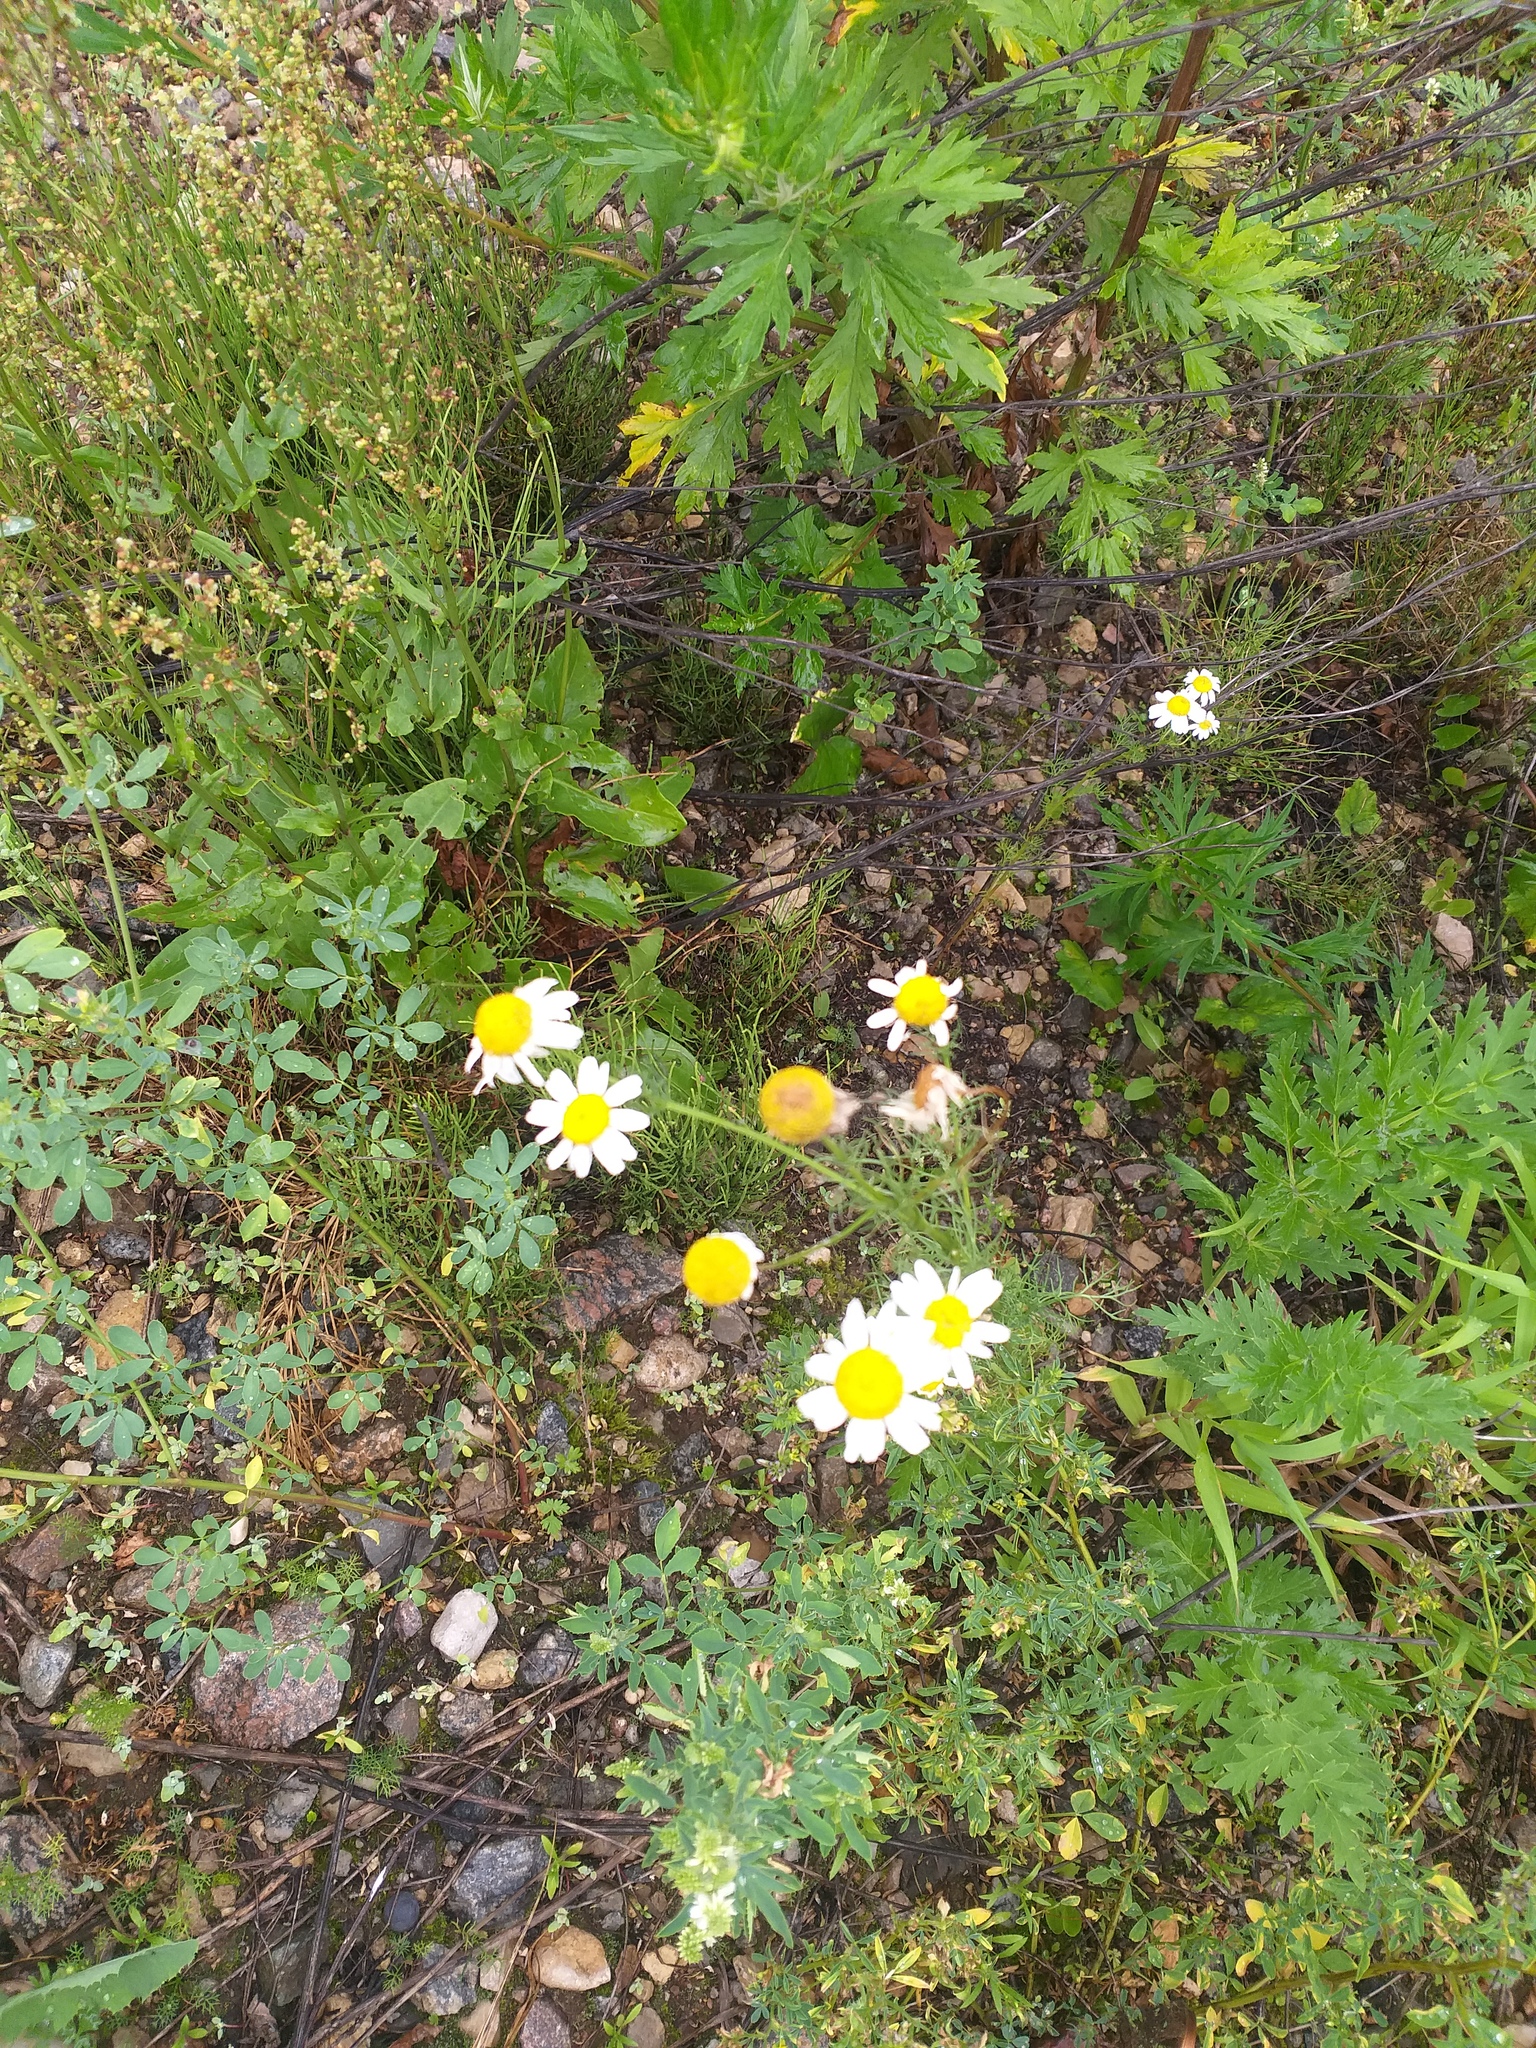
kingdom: Plantae
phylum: Tracheophyta
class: Magnoliopsida
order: Asterales
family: Asteraceae
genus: Tripleurospermum
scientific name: Tripleurospermum inodorum
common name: Scentless mayweed
